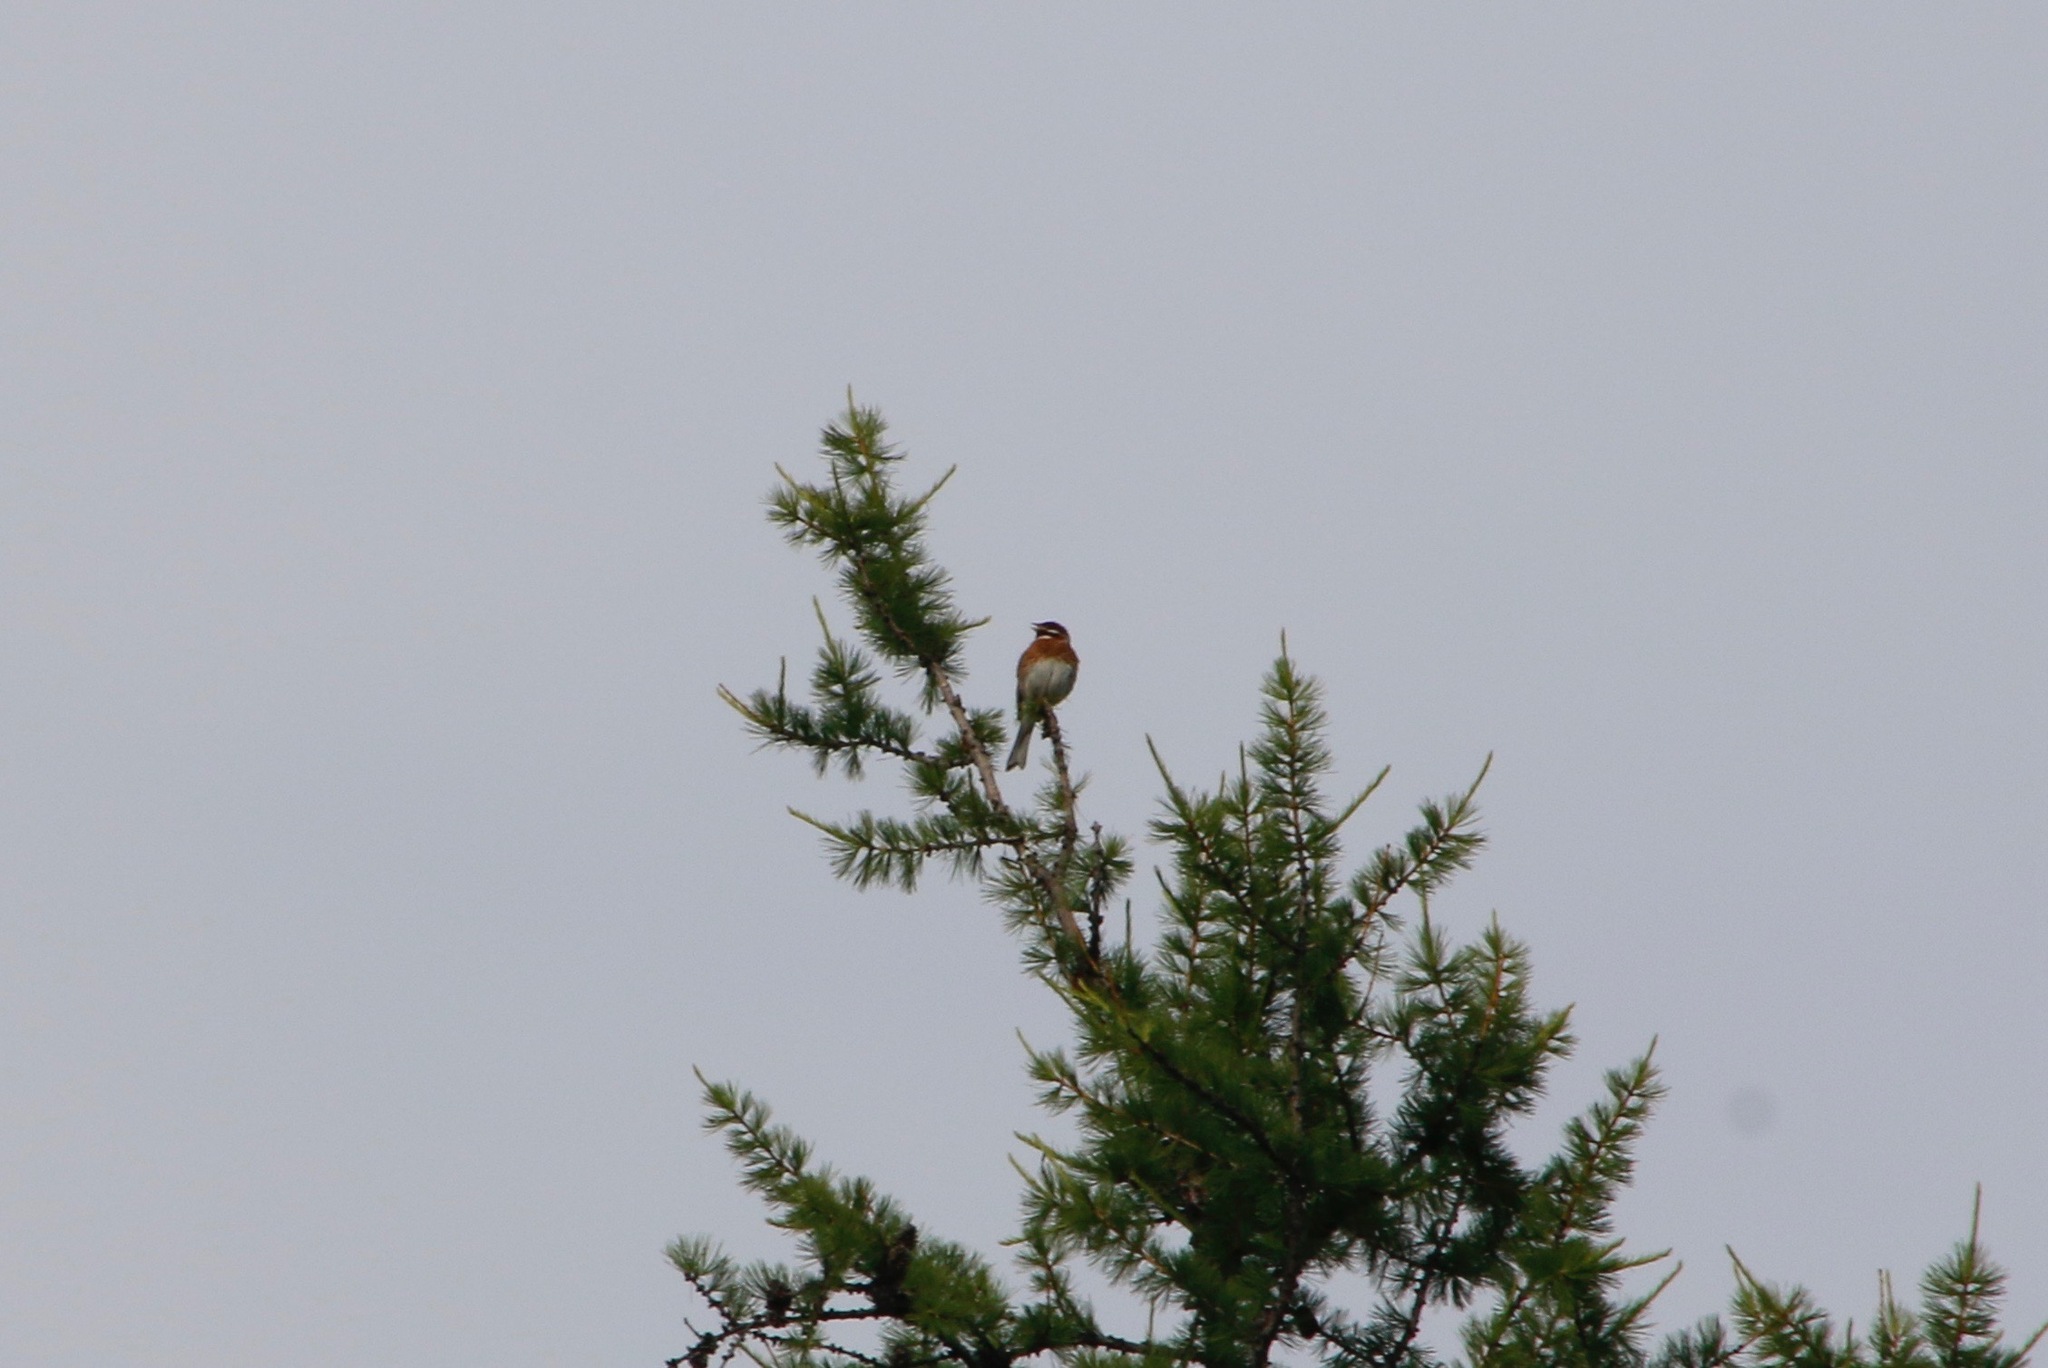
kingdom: Animalia
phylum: Chordata
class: Aves
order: Passeriformes
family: Emberizidae
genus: Emberiza
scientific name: Emberiza leucocephalos
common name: Pine bunting
